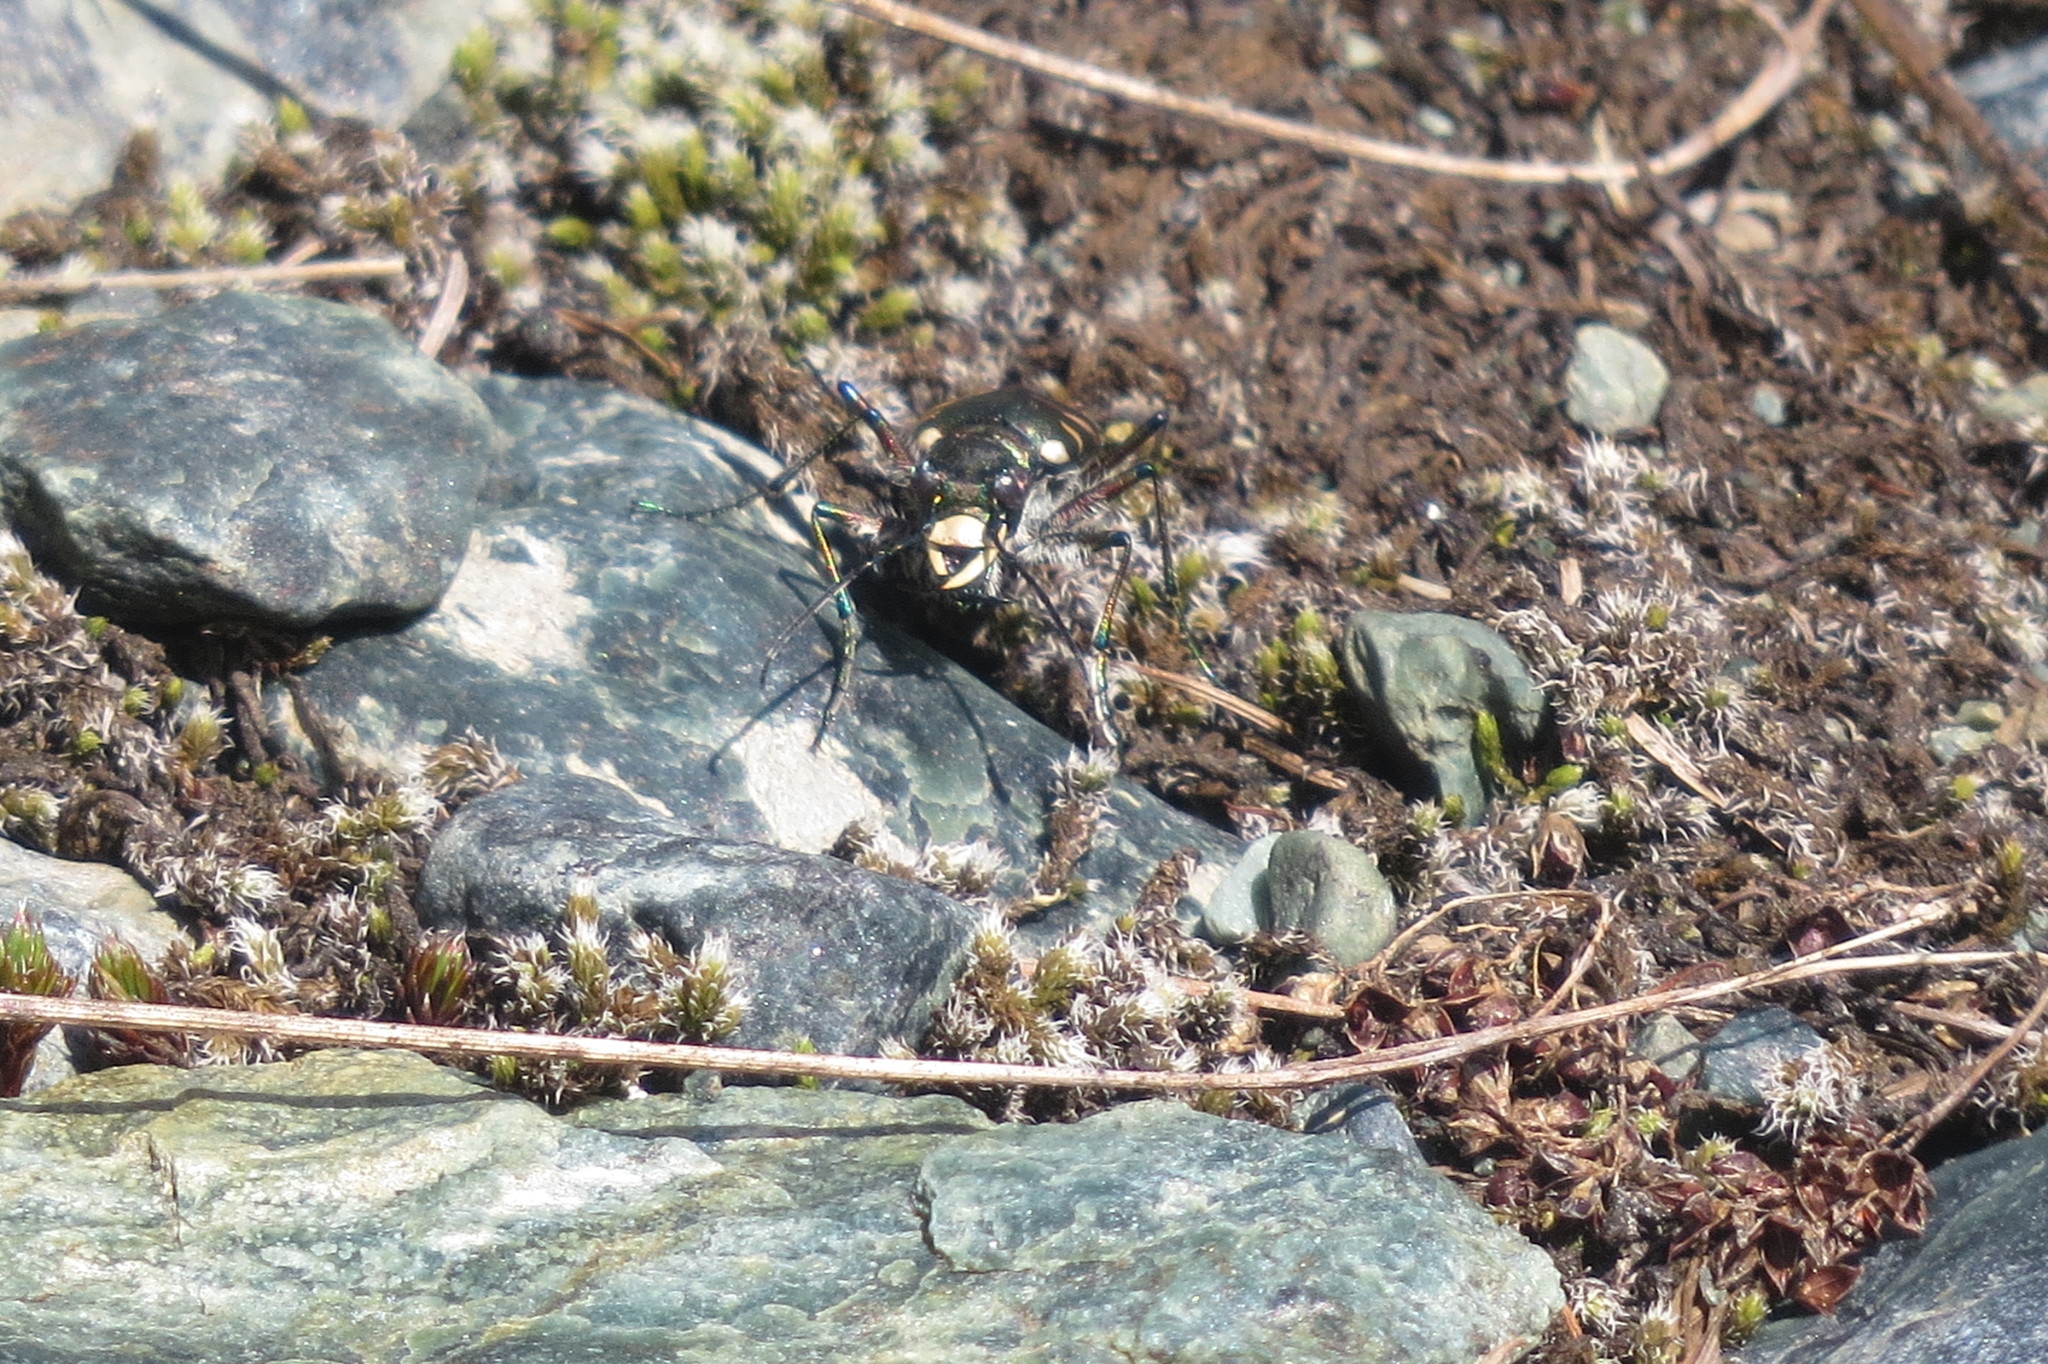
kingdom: Animalia
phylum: Arthropoda
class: Insecta
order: Coleoptera
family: Carabidae
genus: Cicindela
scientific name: Cicindela hybrida
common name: Northern dune tiger beetle
